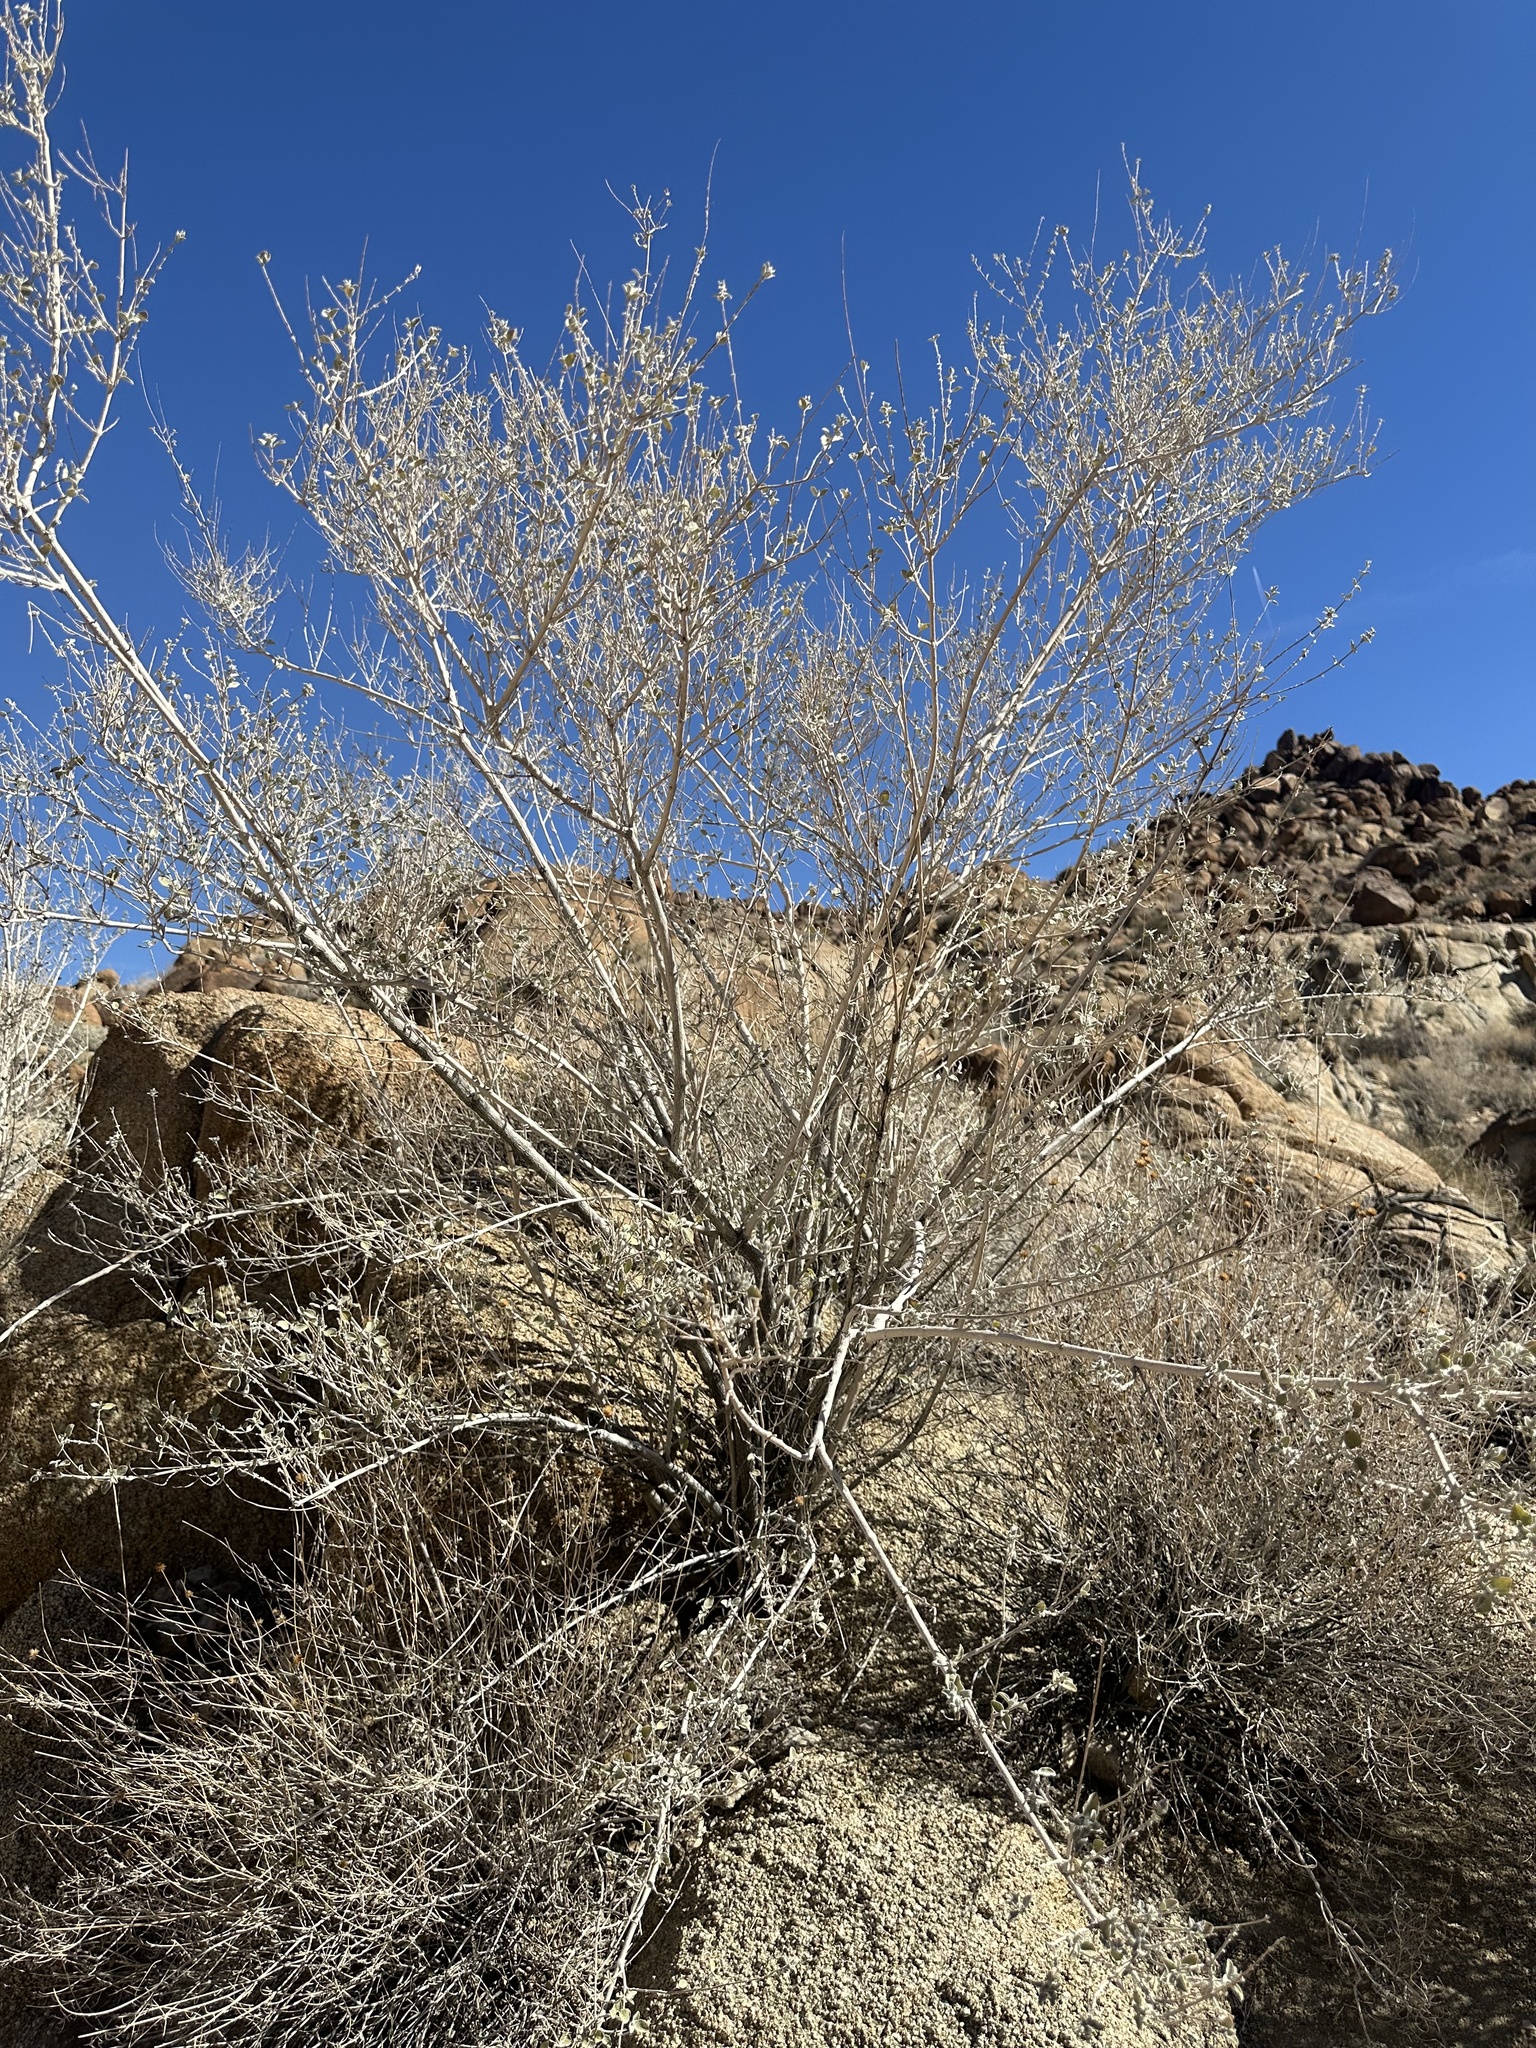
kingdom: Plantae
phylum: Tracheophyta
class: Magnoliopsida
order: Lamiales
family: Lamiaceae
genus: Condea
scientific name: Condea emoryi
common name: Chia
